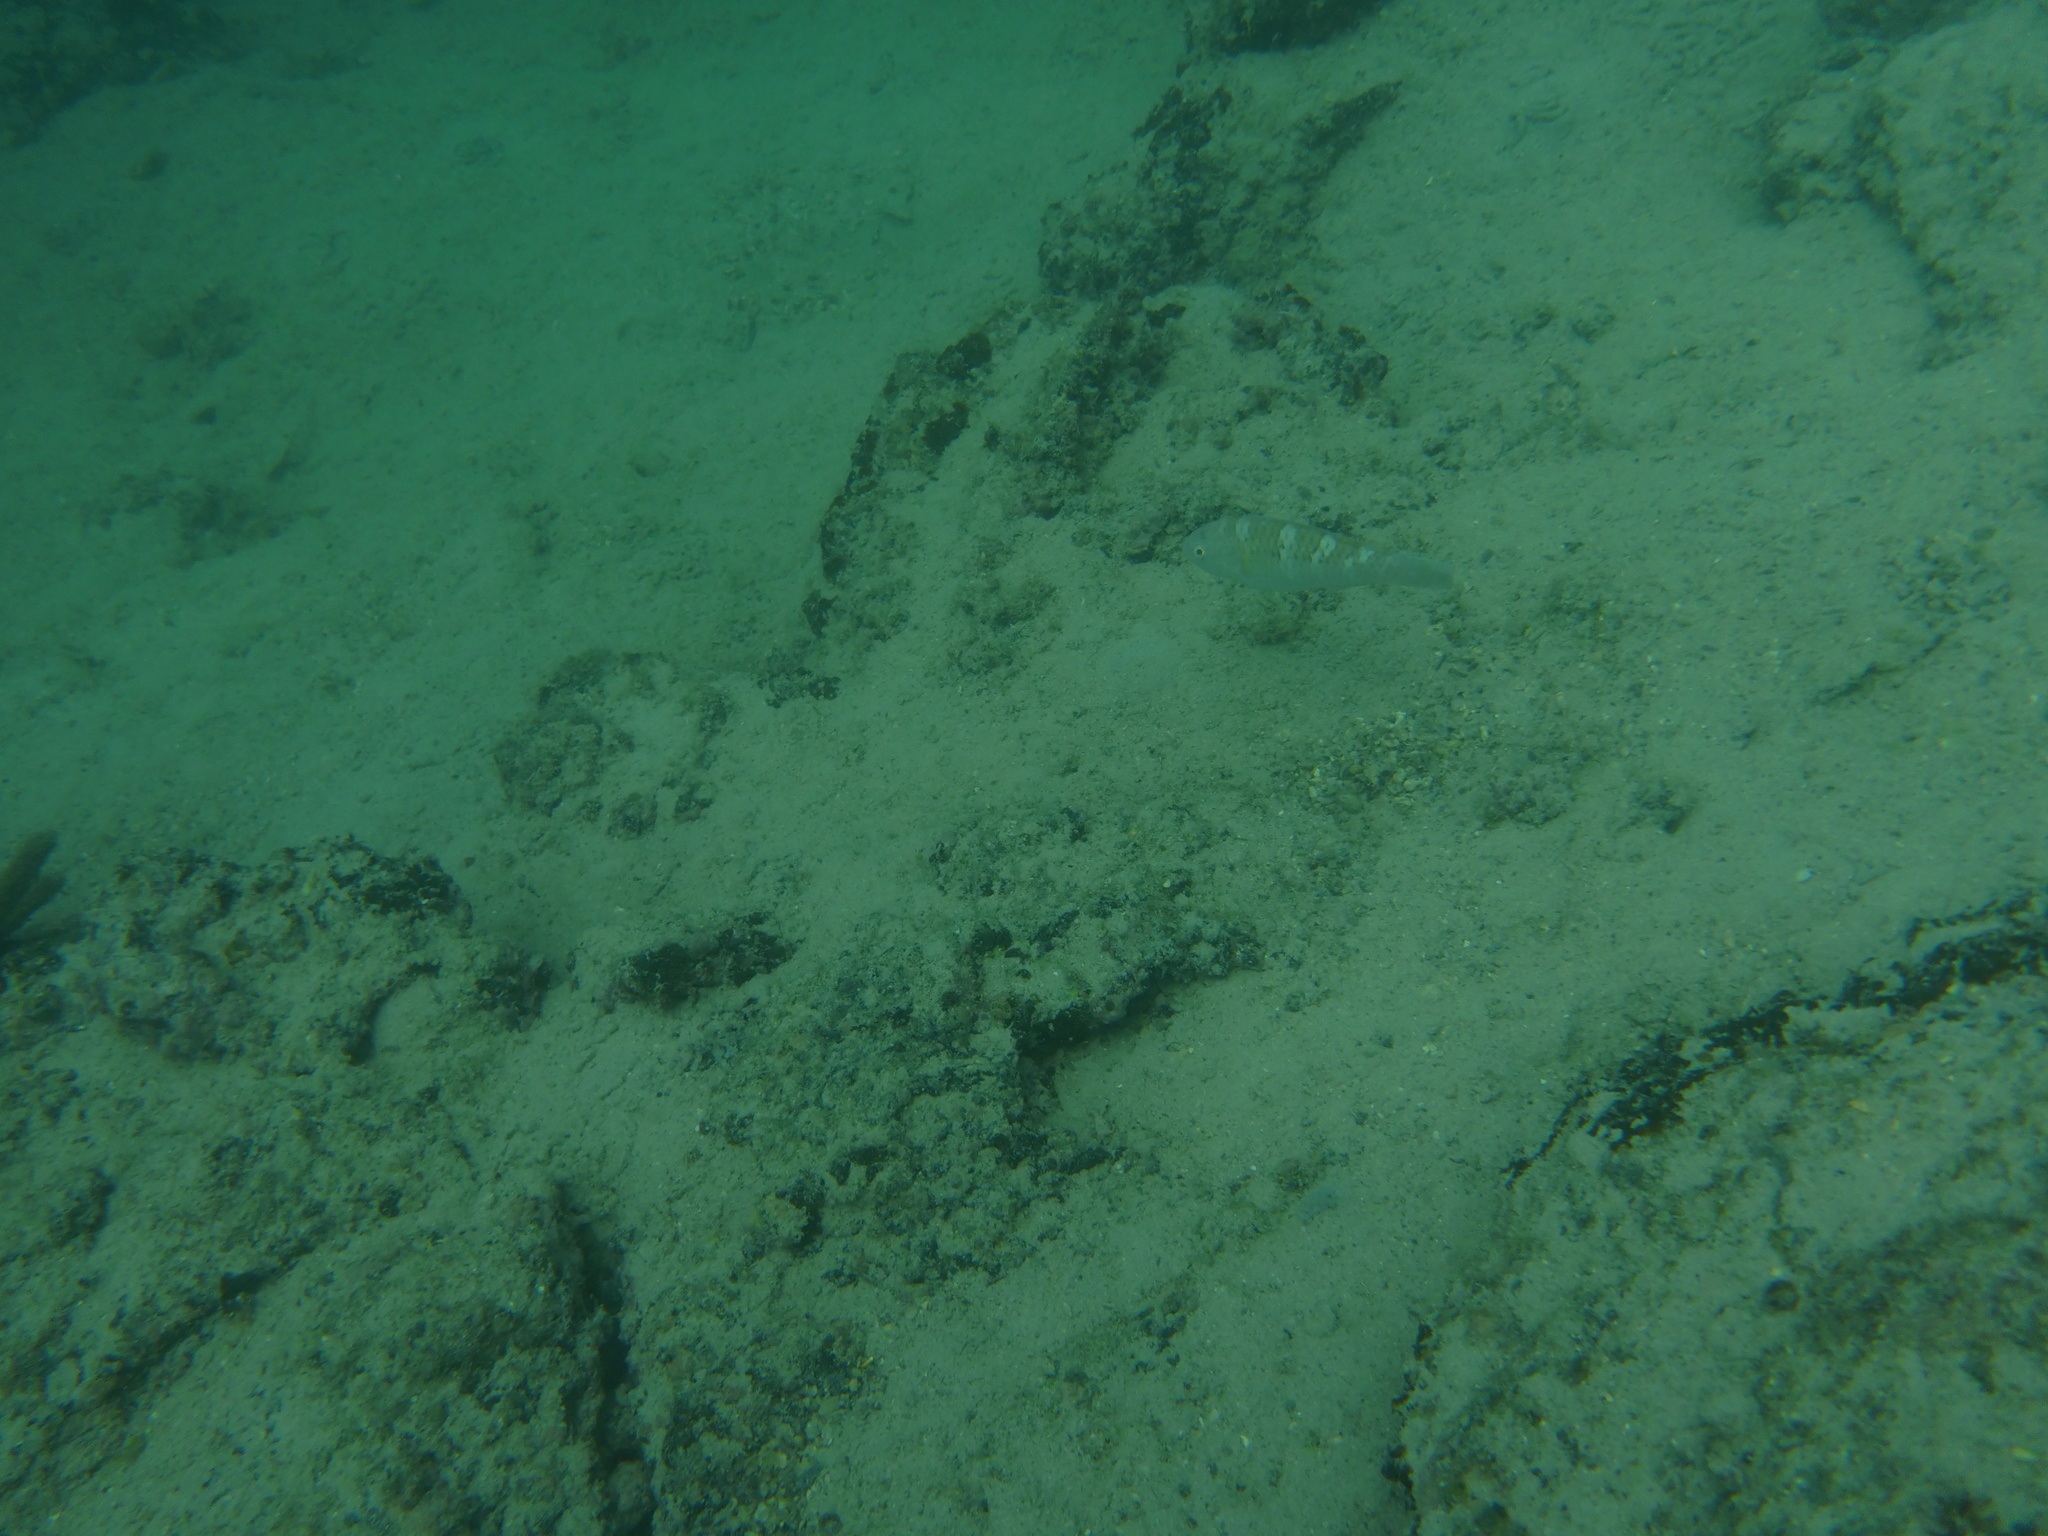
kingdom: Animalia
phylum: Chordata
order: Perciformes
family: Scaridae
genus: Scarus
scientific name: Scarus ghobban
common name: Blue-barred parrotfish
